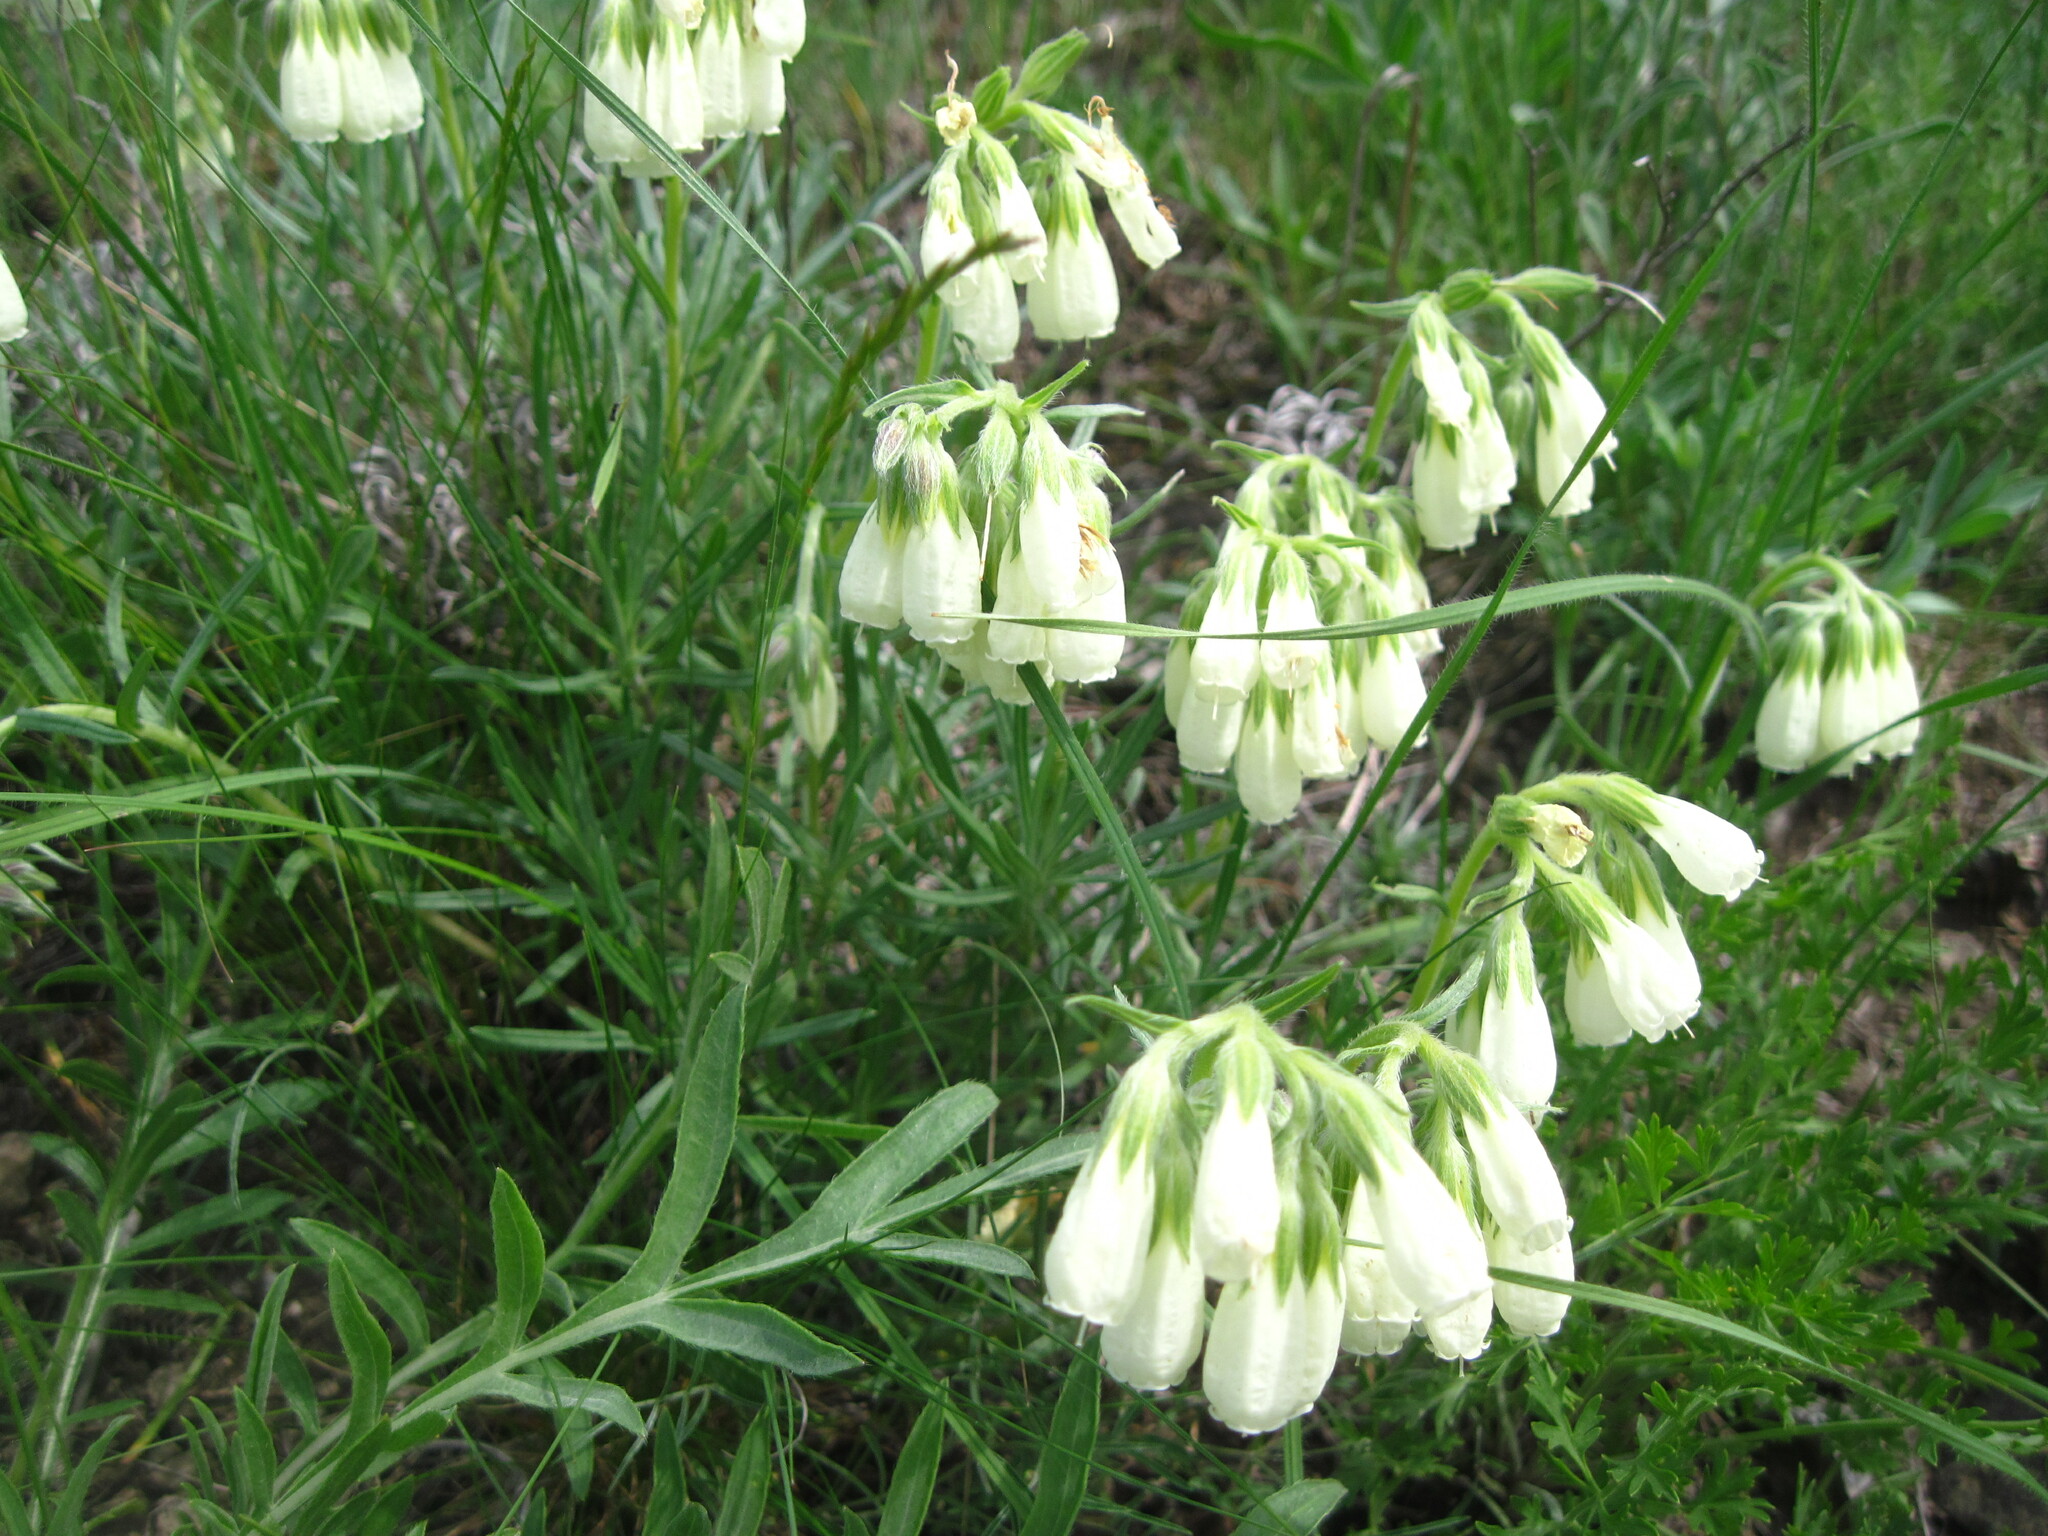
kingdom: Plantae
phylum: Tracheophyta
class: Magnoliopsida
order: Boraginales
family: Boraginaceae
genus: Onosma
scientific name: Onosma simplicissima
